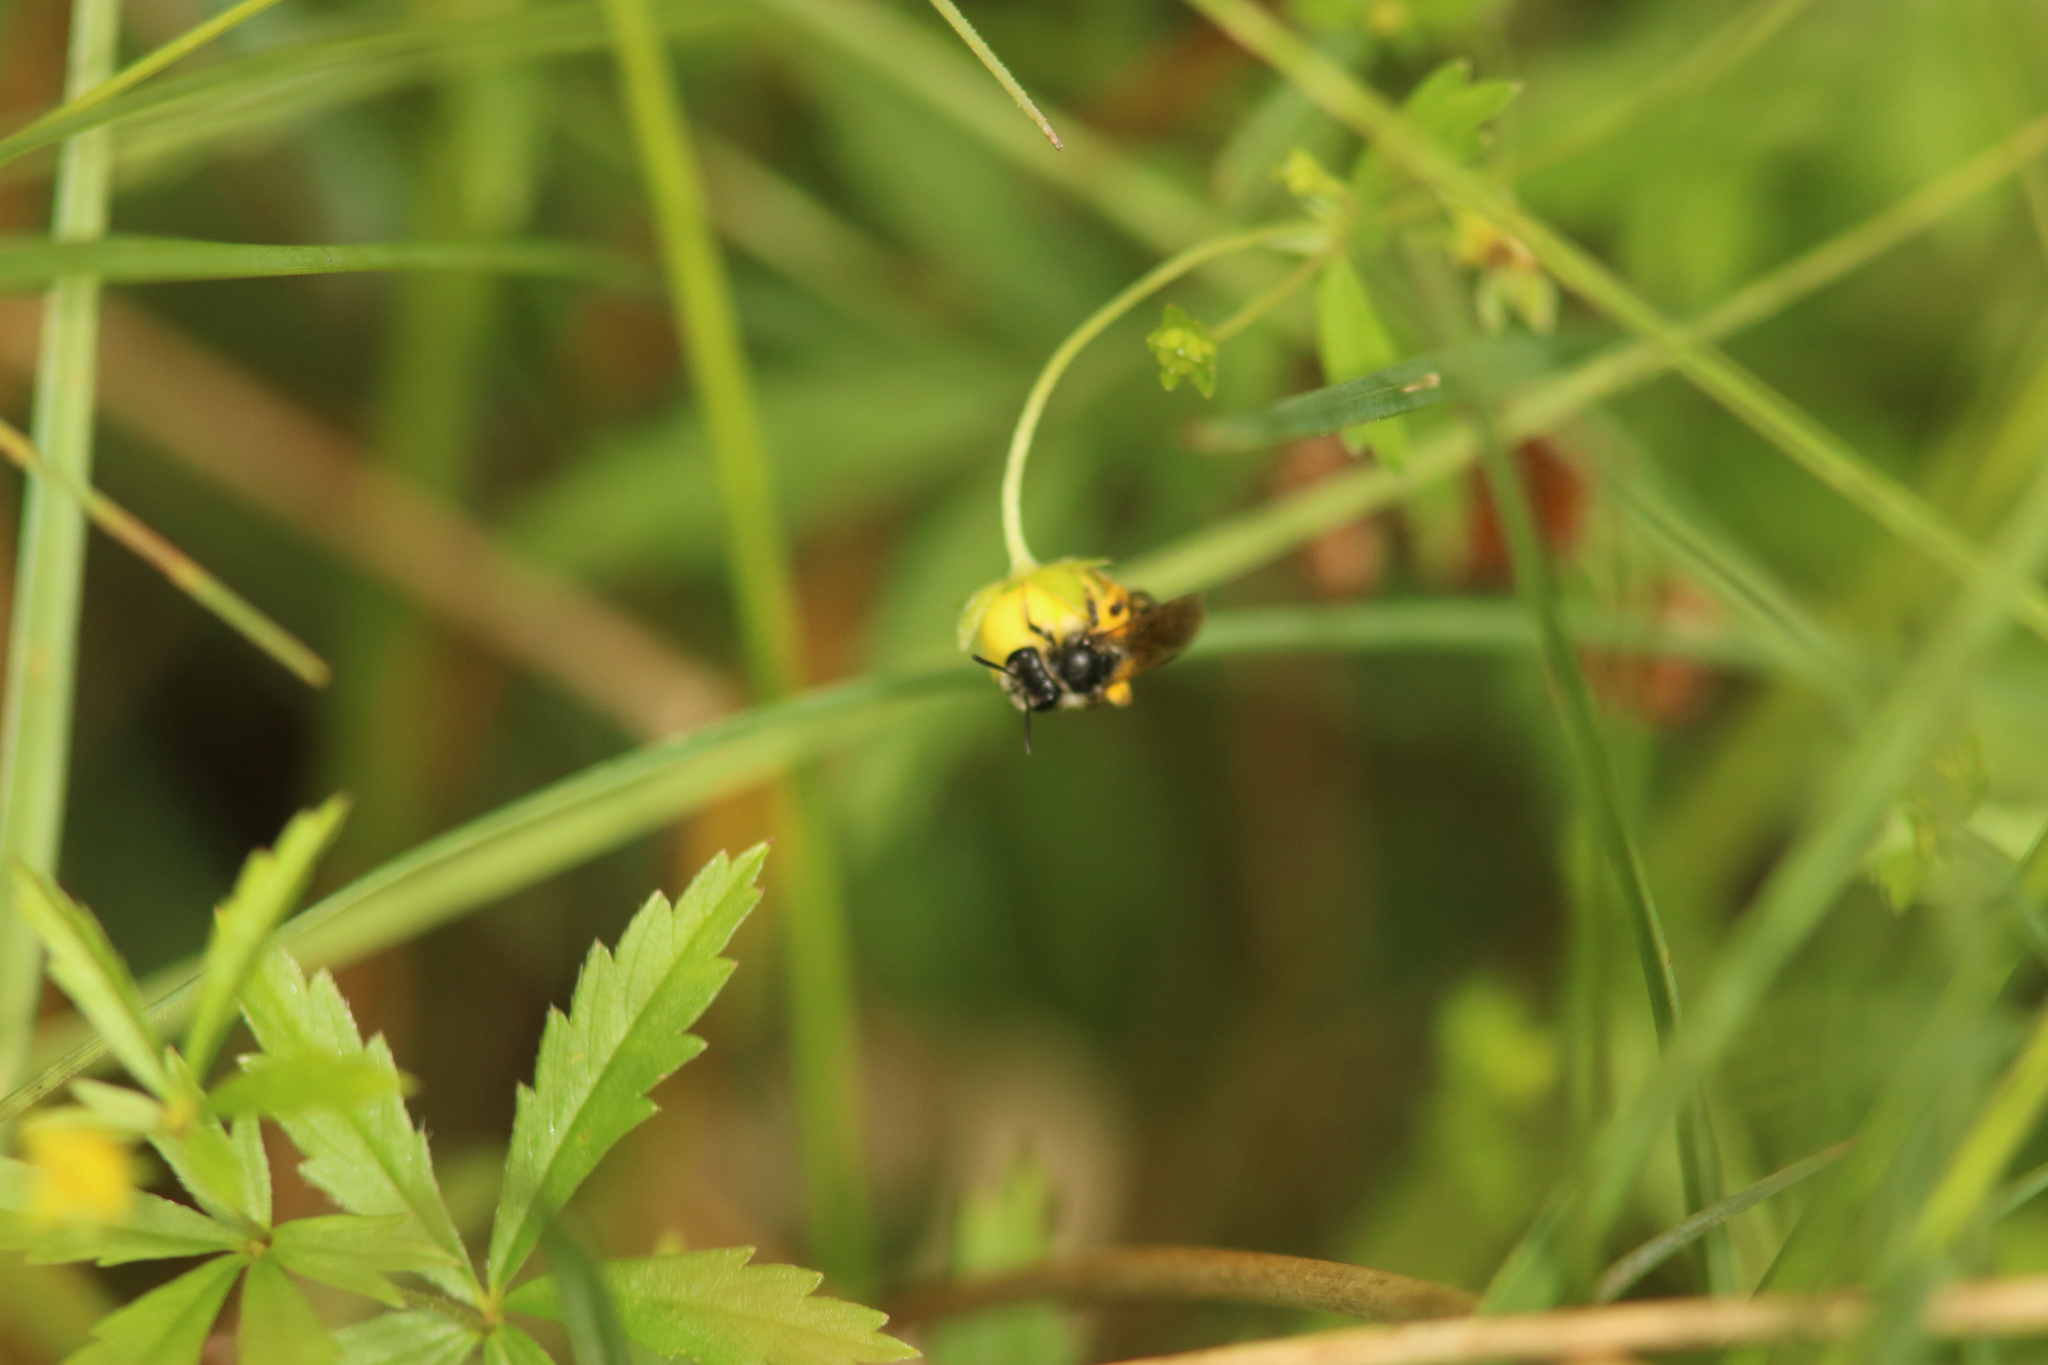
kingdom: Animalia
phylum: Arthropoda
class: Insecta
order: Hymenoptera
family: Andrenidae
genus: Andrena
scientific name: Andrena tarsata
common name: Tormentil mining bee
